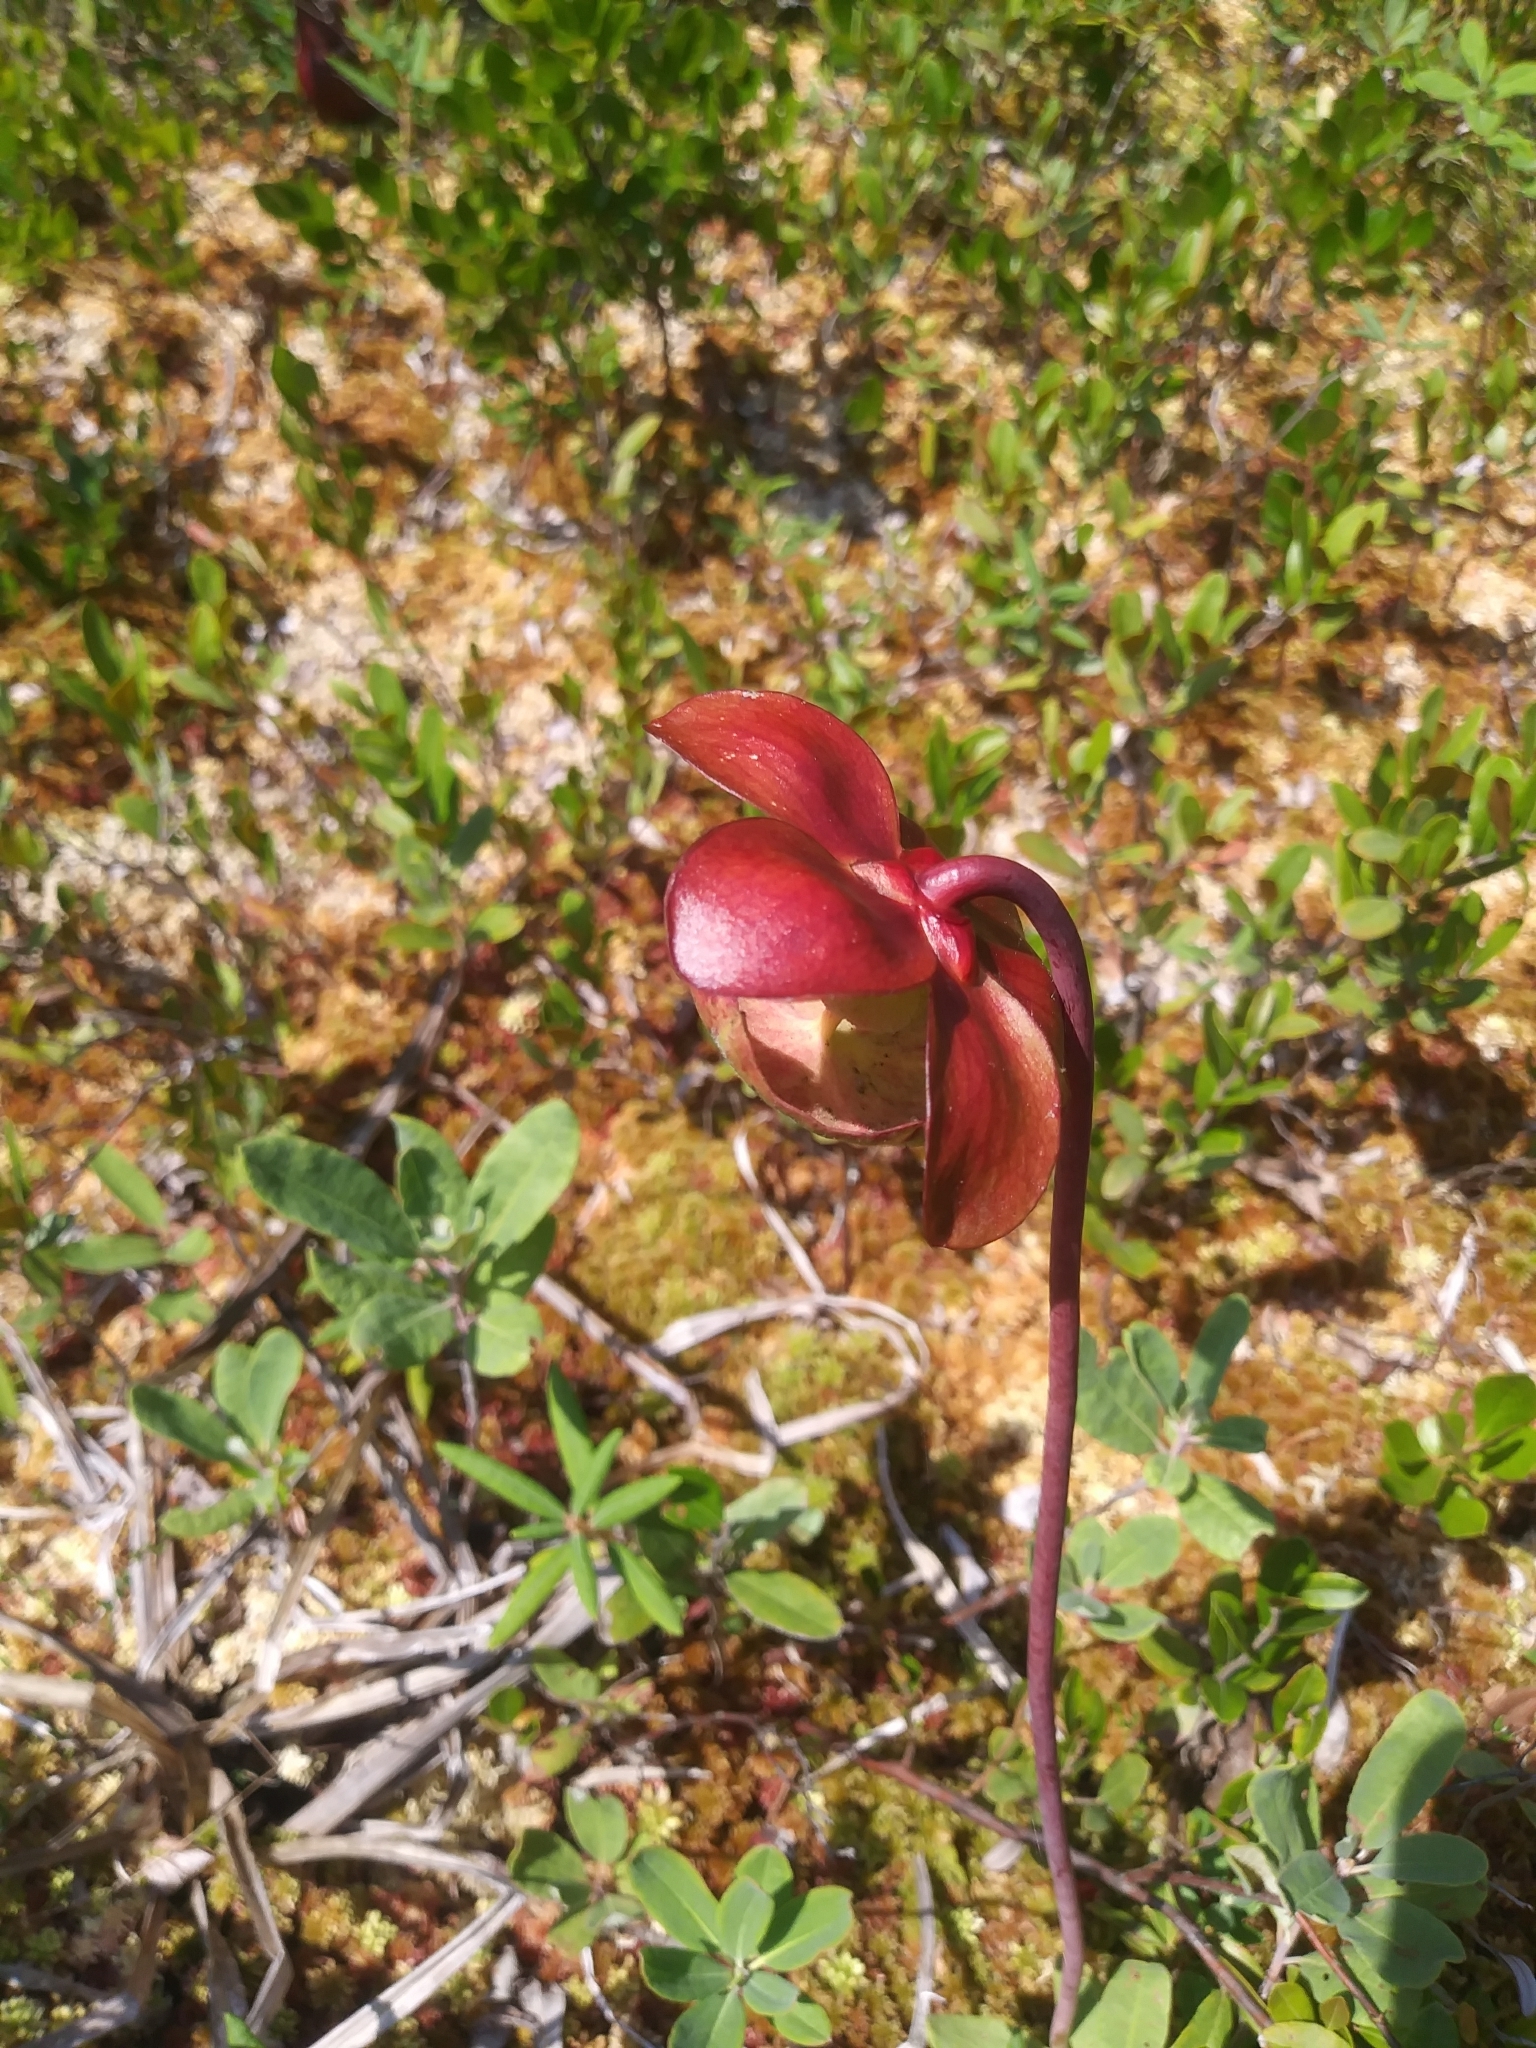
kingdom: Plantae
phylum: Tracheophyta
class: Magnoliopsida
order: Ericales
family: Sarraceniaceae
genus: Sarracenia
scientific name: Sarracenia purpurea
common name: Pitcherplant
